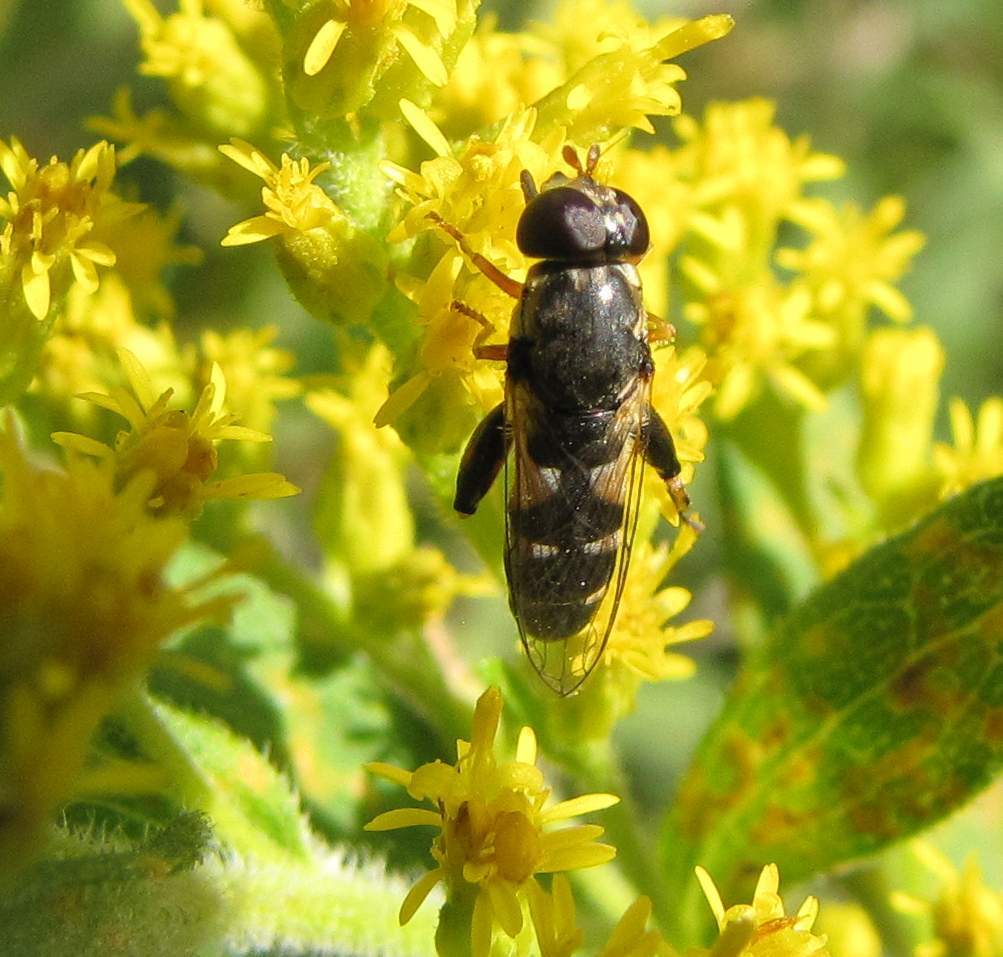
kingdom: Animalia
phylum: Arthropoda
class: Insecta
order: Diptera
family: Syrphidae
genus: Syritta
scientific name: Syritta pipiens
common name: Hover fly
